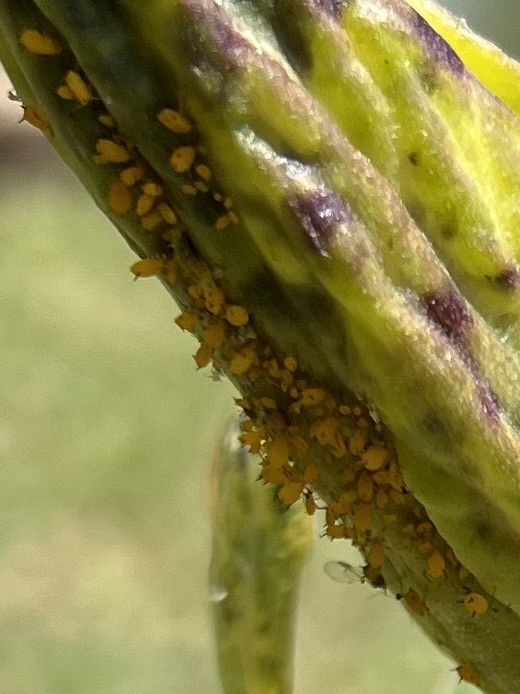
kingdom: Animalia
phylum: Arthropoda
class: Insecta
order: Hemiptera
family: Aphididae
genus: Aphis
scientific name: Aphis nerii
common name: Oleander aphid
